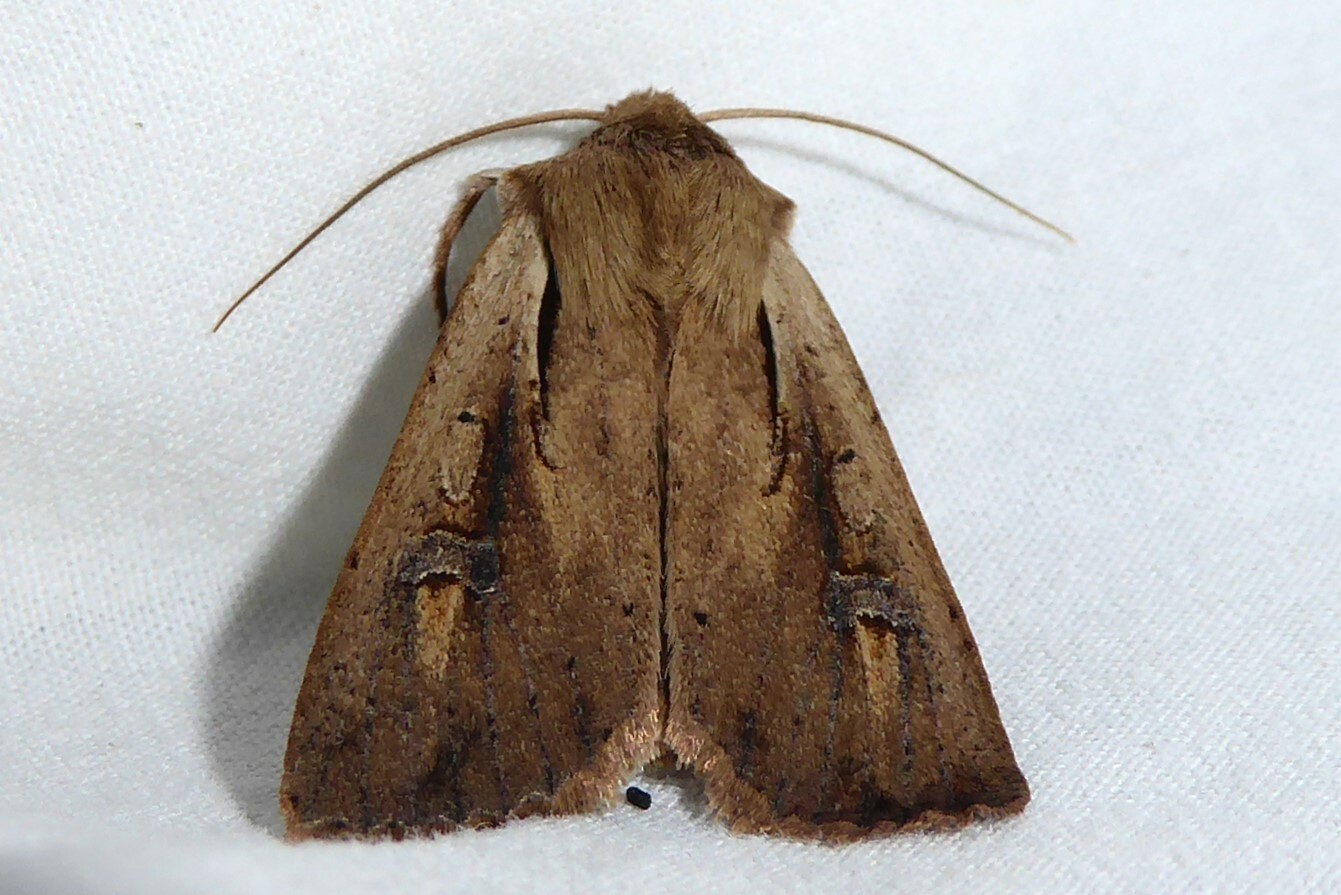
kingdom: Animalia
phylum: Arthropoda
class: Insecta
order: Lepidoptera
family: Noctuidae
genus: Ichneutica
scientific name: Ichneutica atristriga
